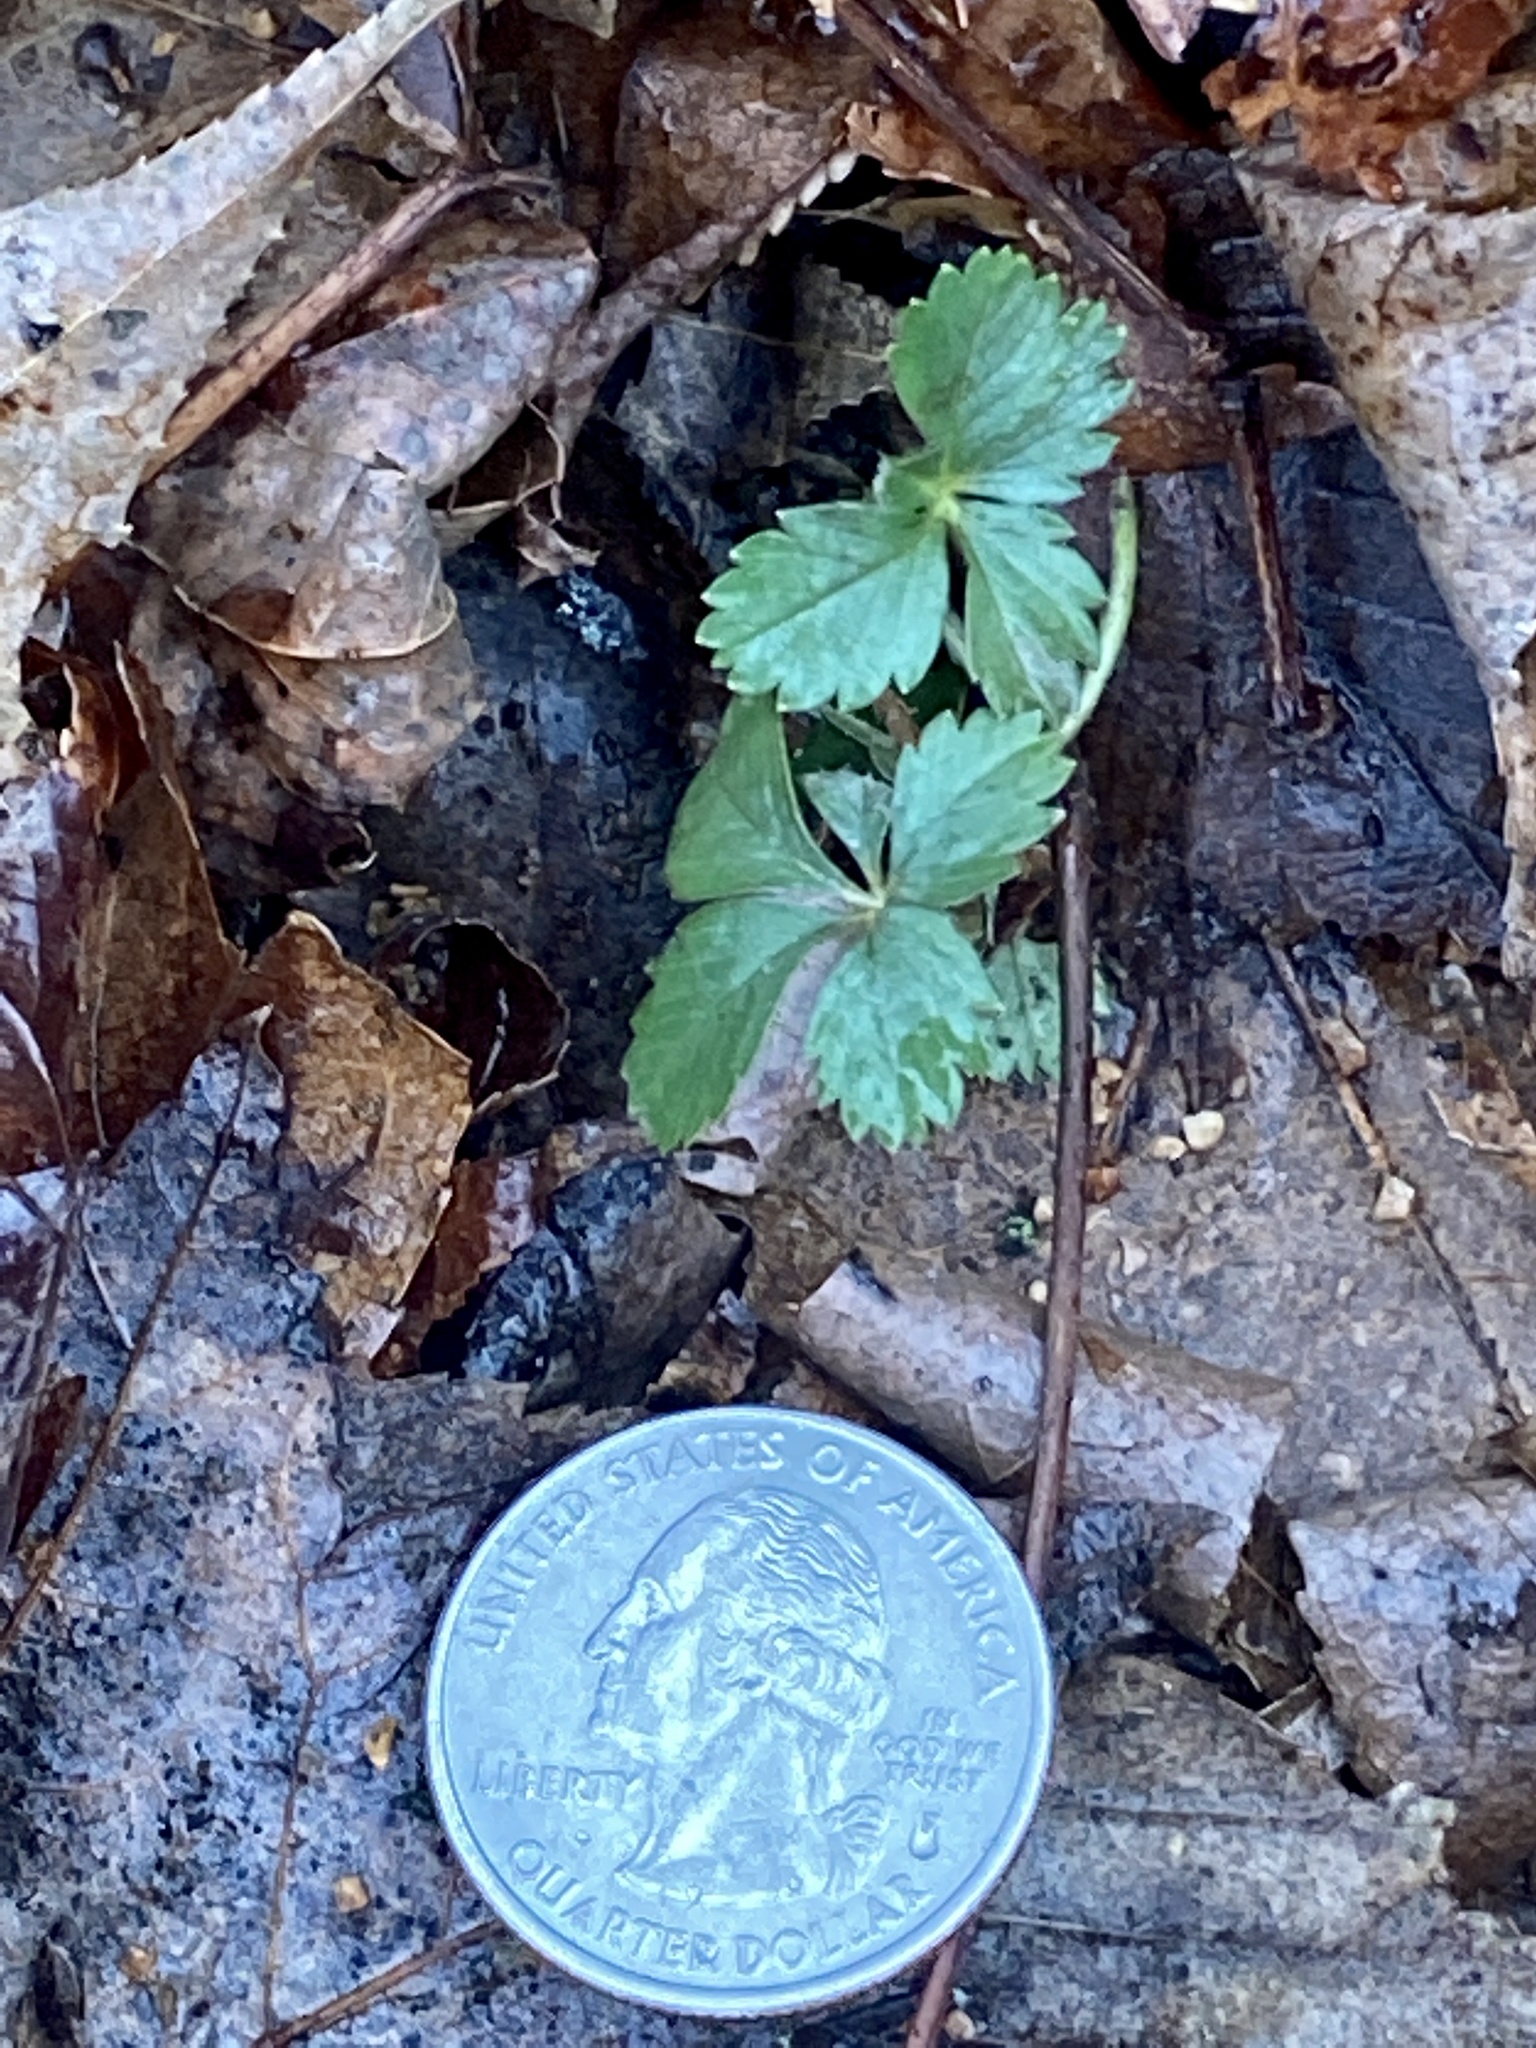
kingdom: Plantae
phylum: Tracheophyta
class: Magnoliopsida
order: Rosales
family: Rosaceae
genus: Potentilla
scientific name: Potentilla canadensis
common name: Canada cinquefoil
